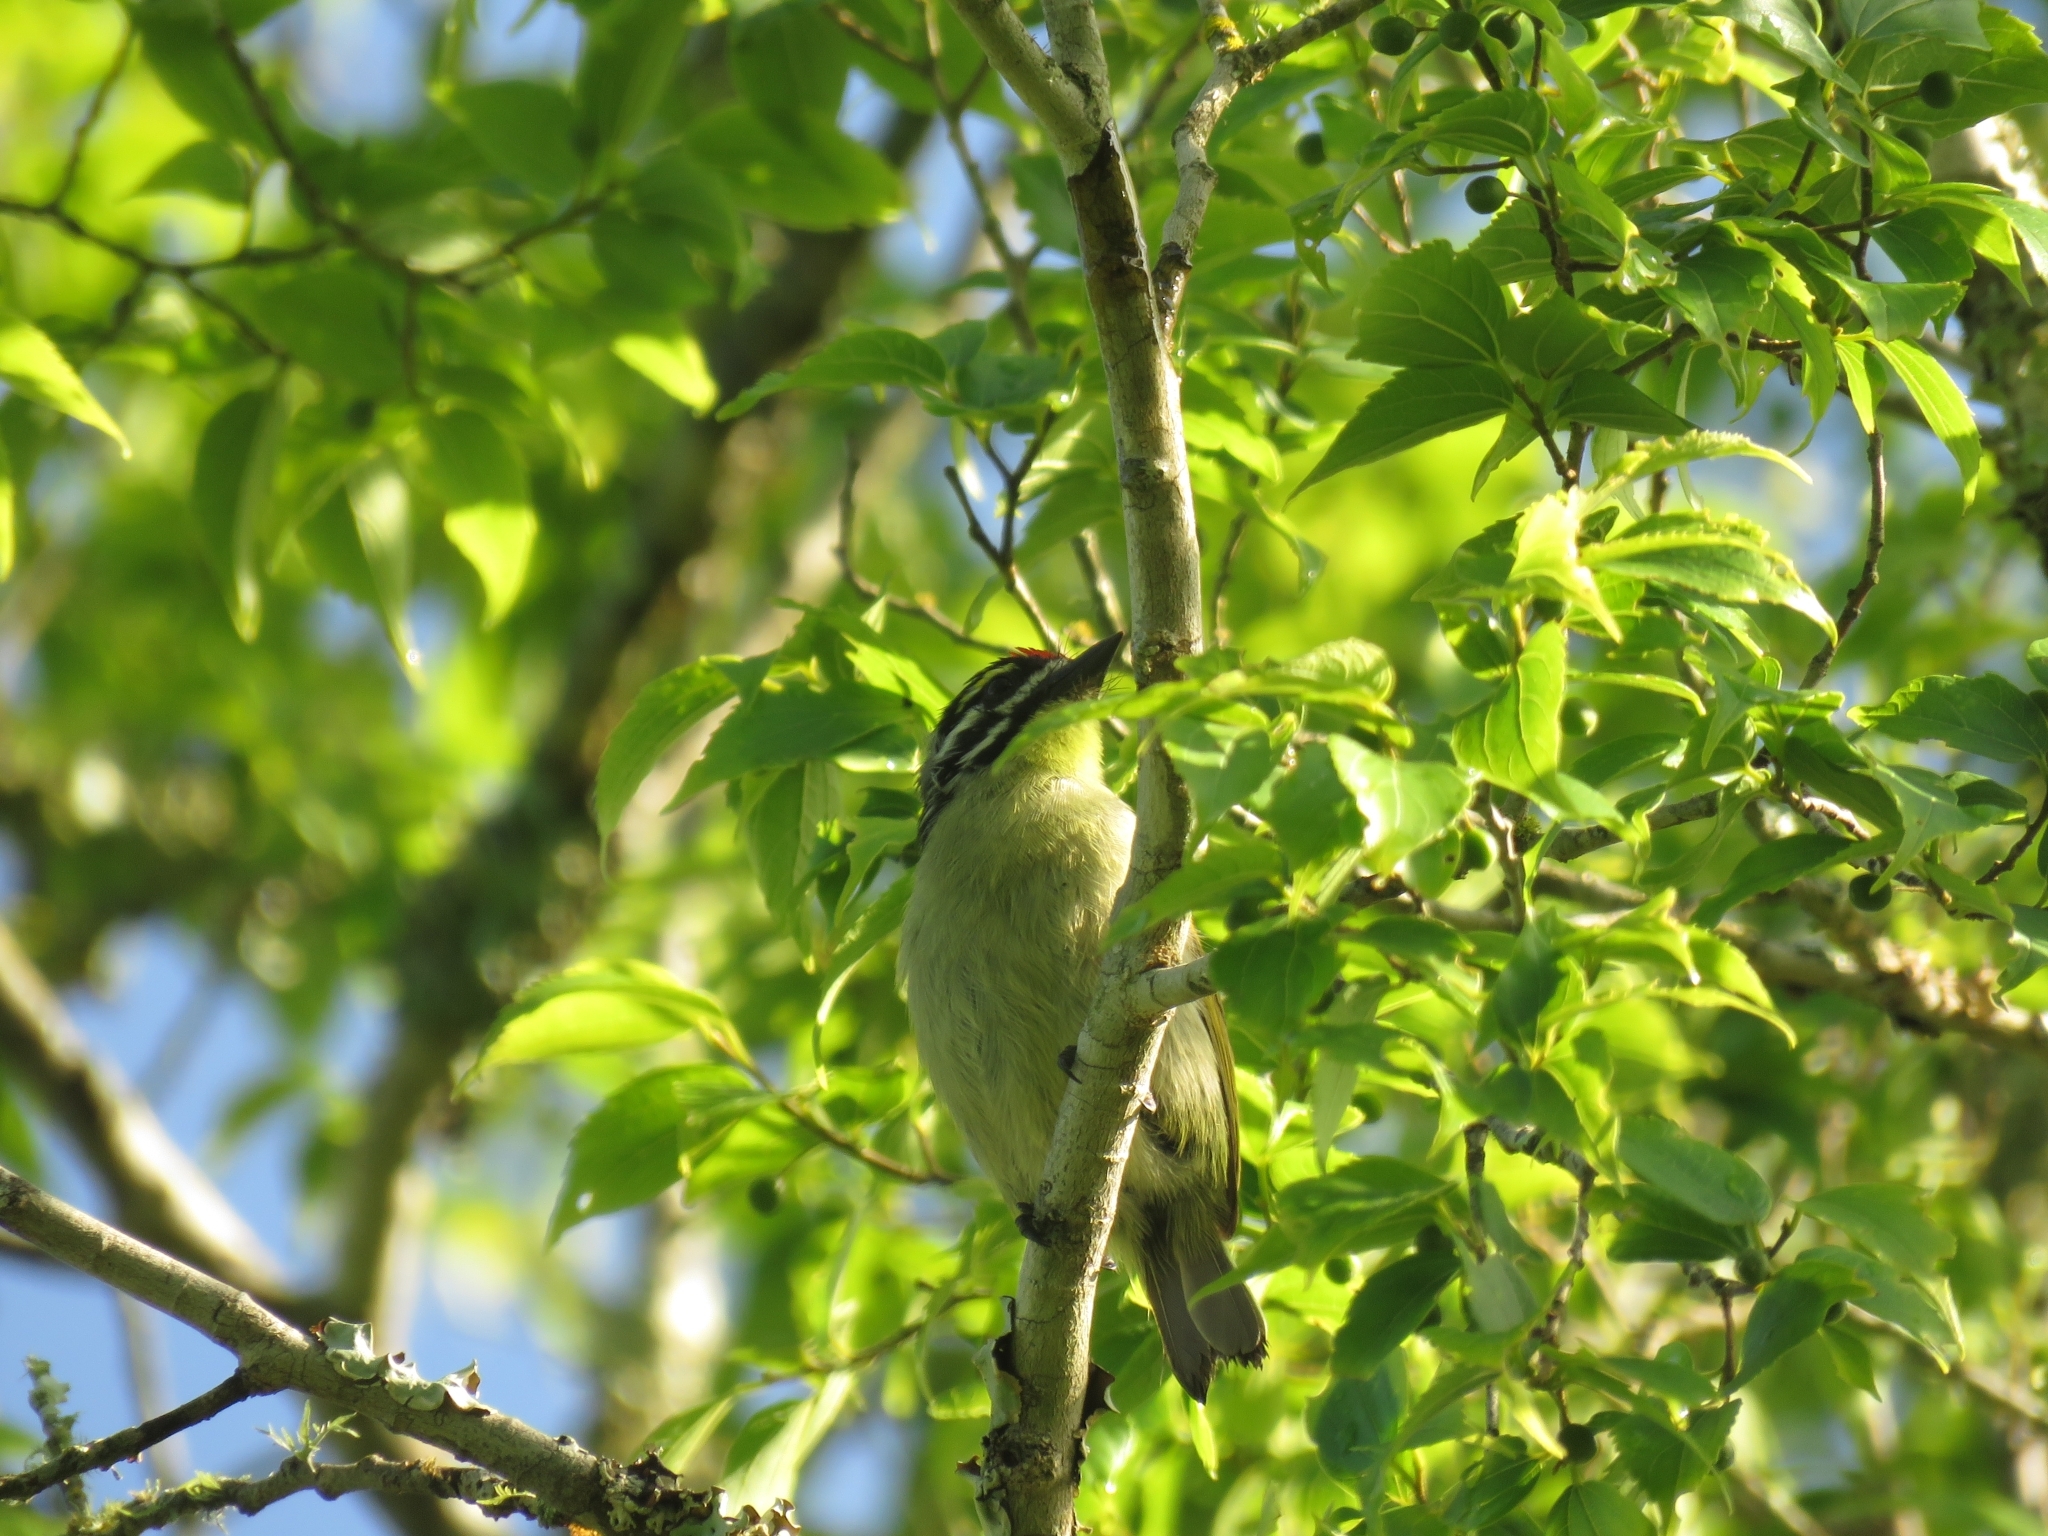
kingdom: Animalia
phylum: Chordata
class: Aves
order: Piciformes
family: Lybiidae
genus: Pogoniulus
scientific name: Pogoniulus pusillus
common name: Red-fronted tinkerbird
